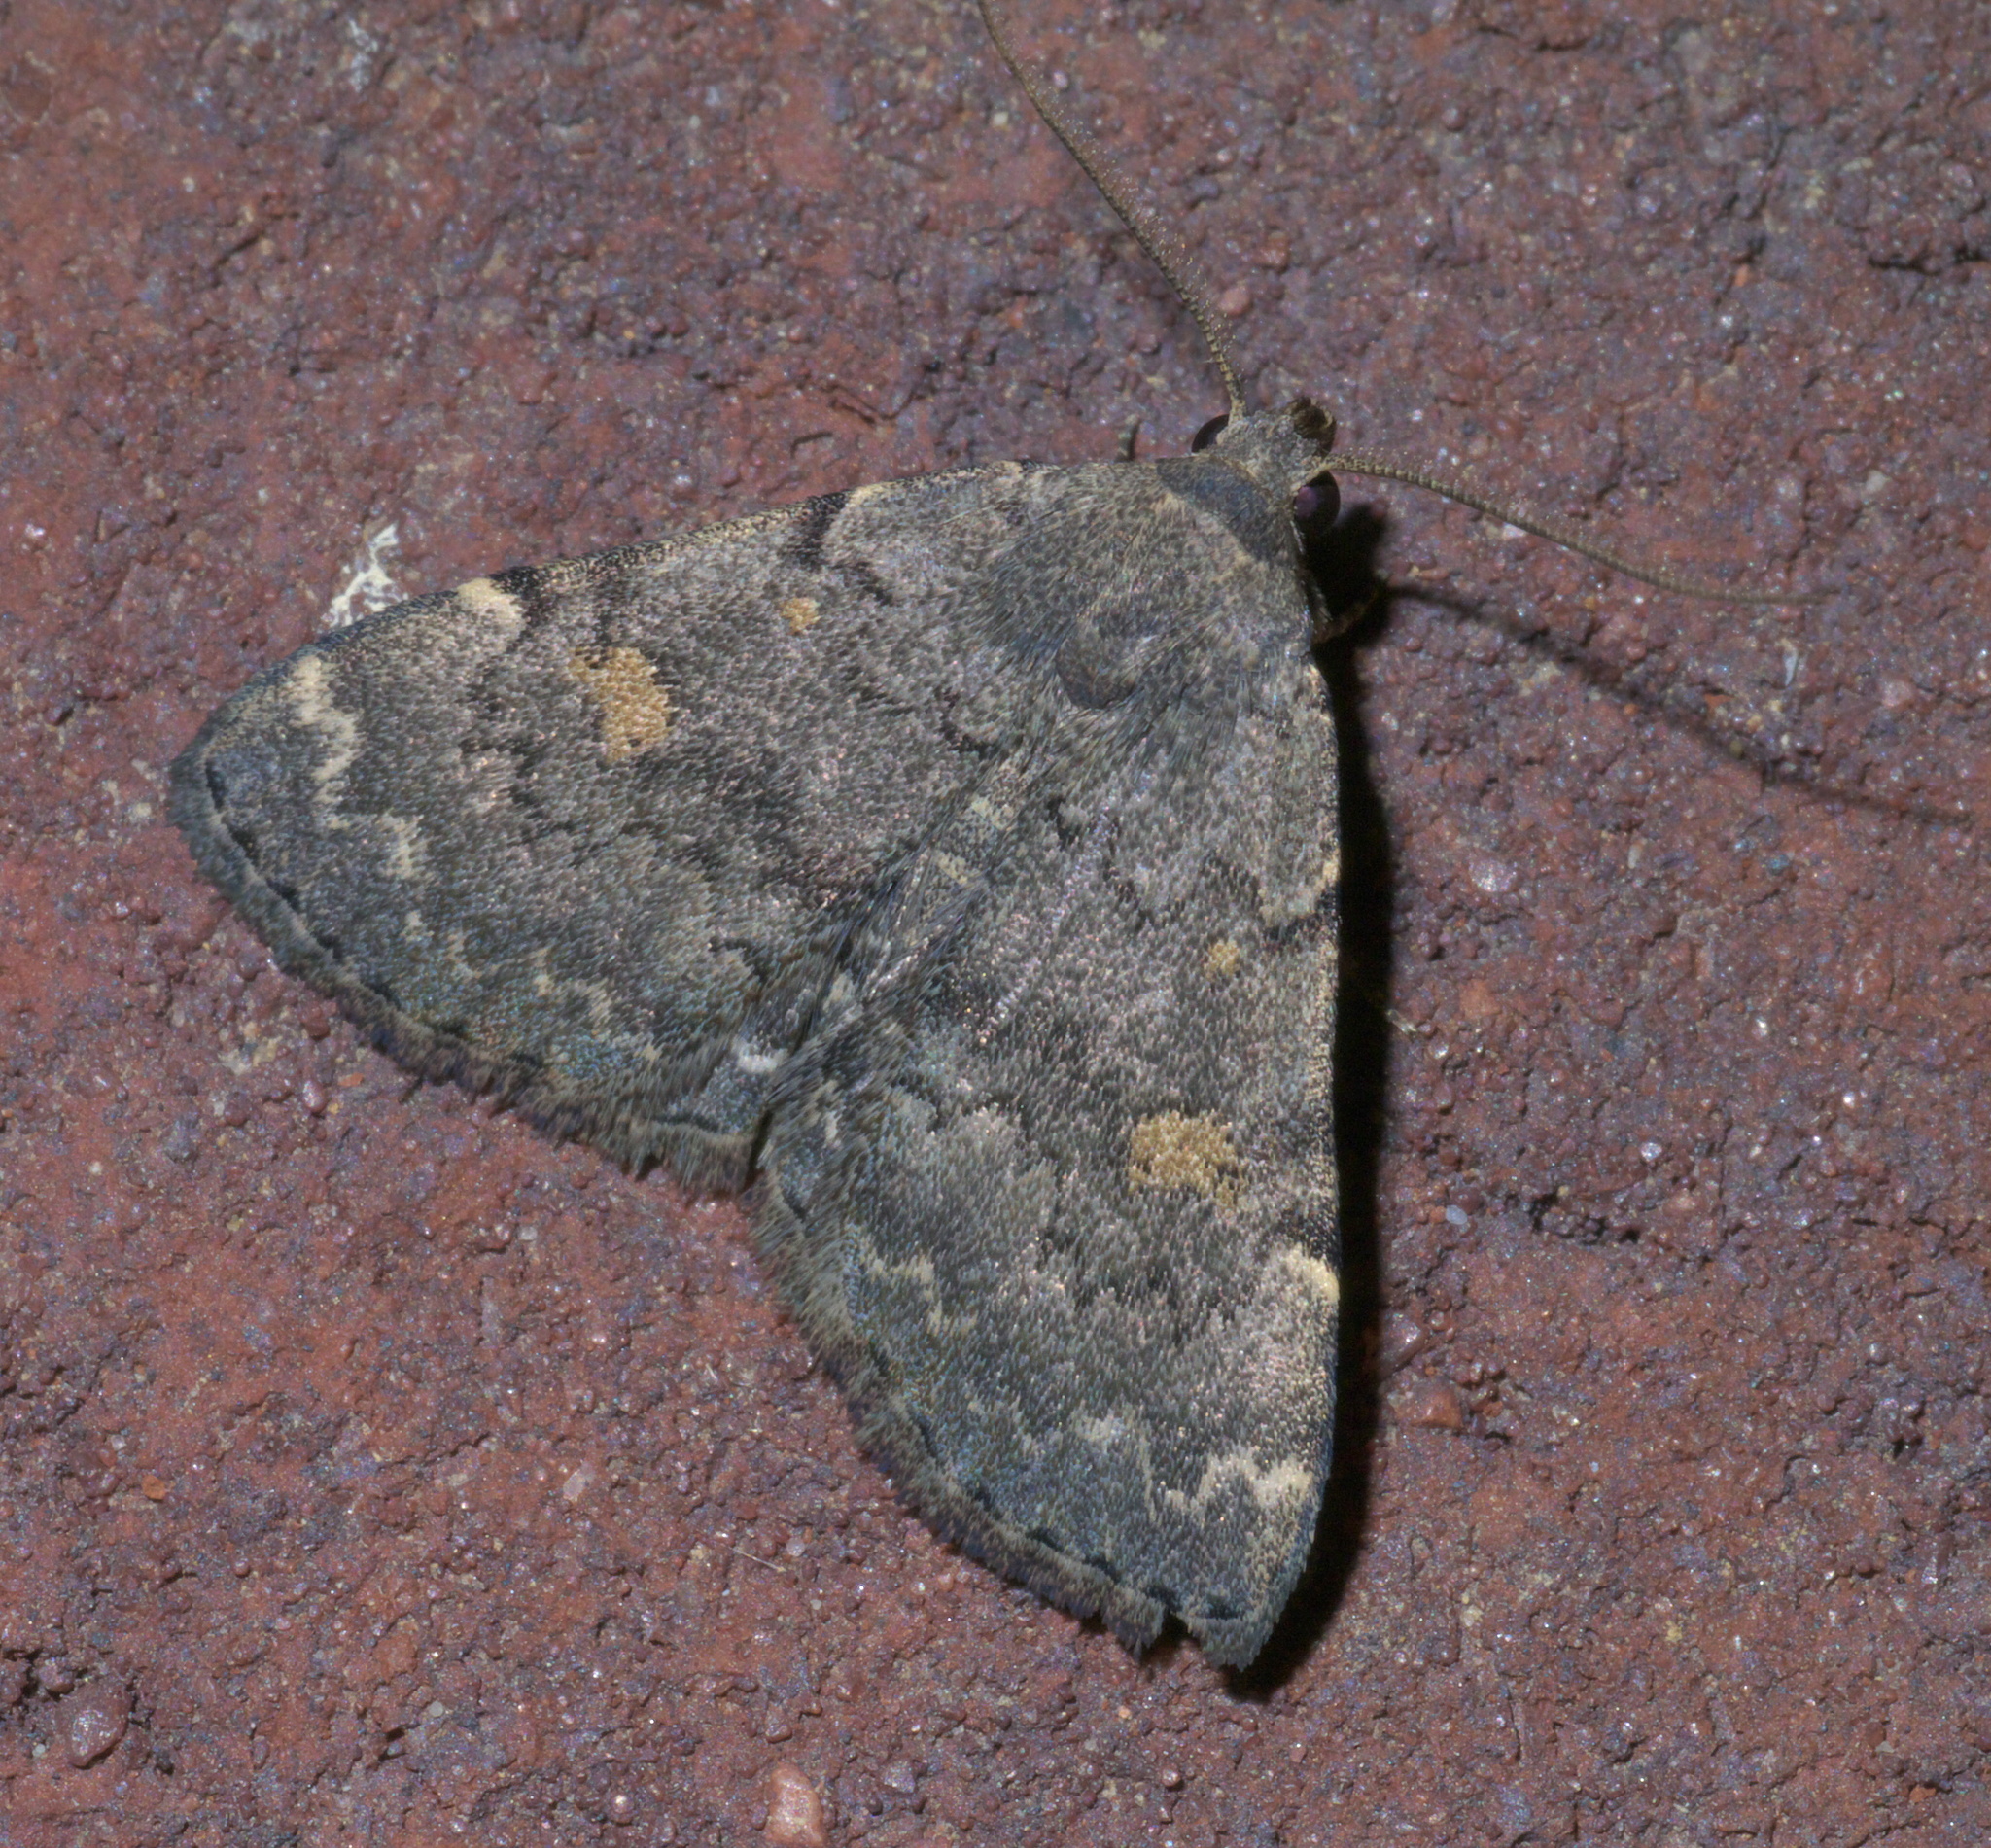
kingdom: Animalia
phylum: Arthropoda
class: Insecta
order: Lepidoptera
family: Erebidae
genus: Idia
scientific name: Idia aemula
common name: Common idia moth
